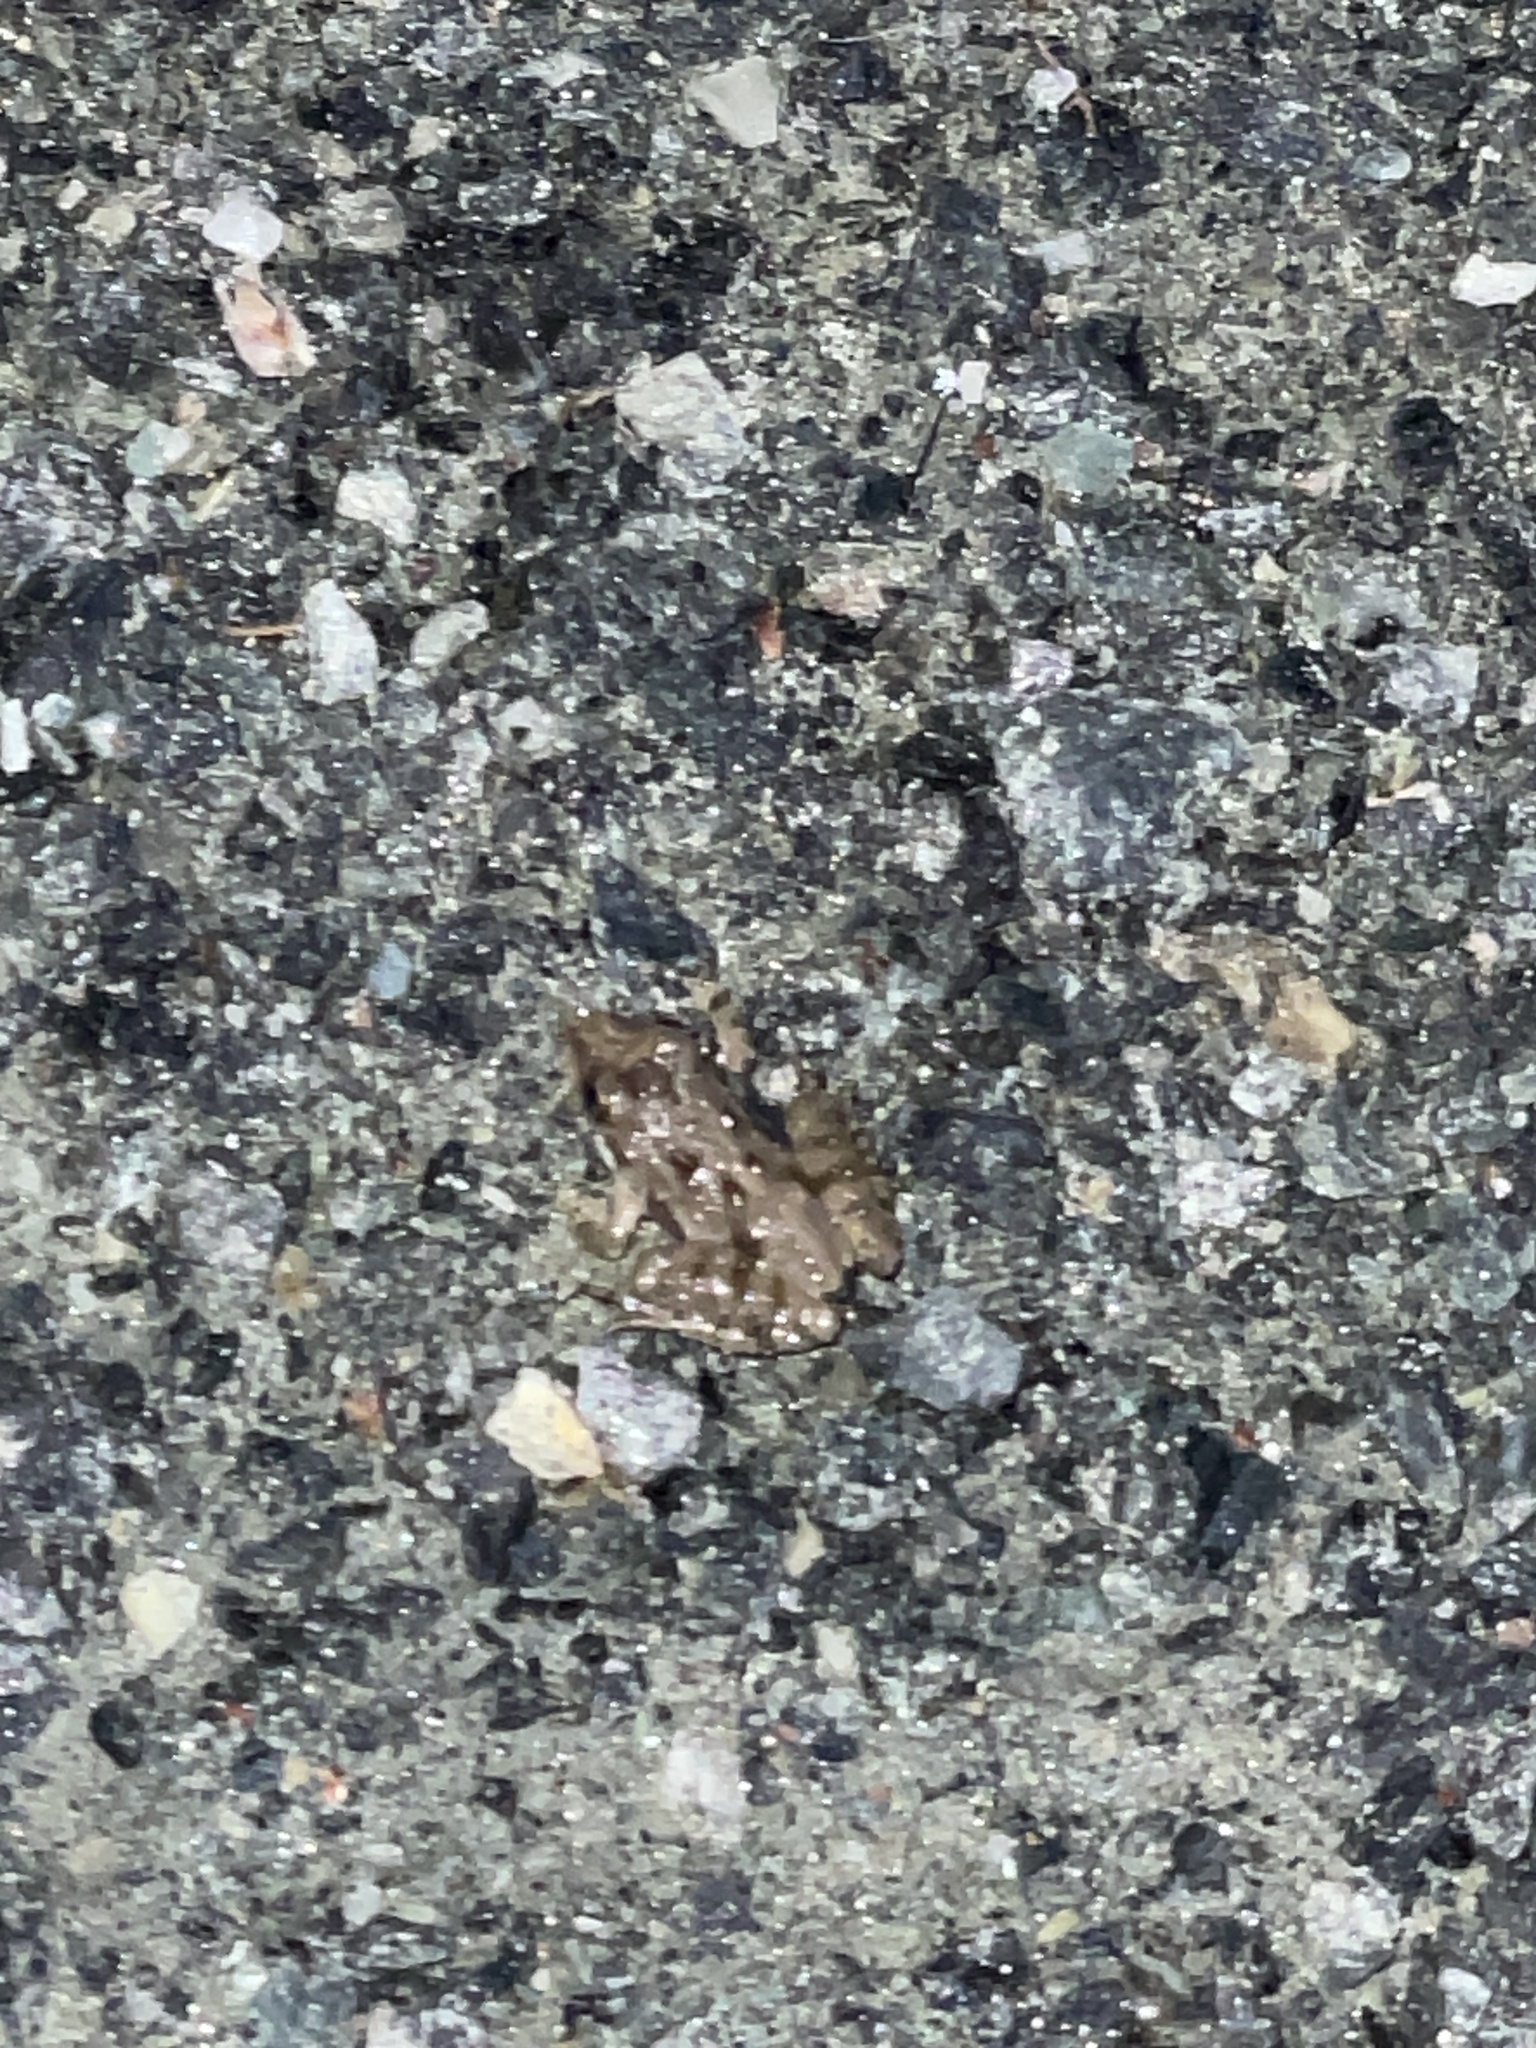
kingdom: Animalia
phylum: Chordata
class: Amphibia
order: Anura
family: Hylidae
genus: Acris
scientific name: Acris crepitans
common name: Northern cricket frog
